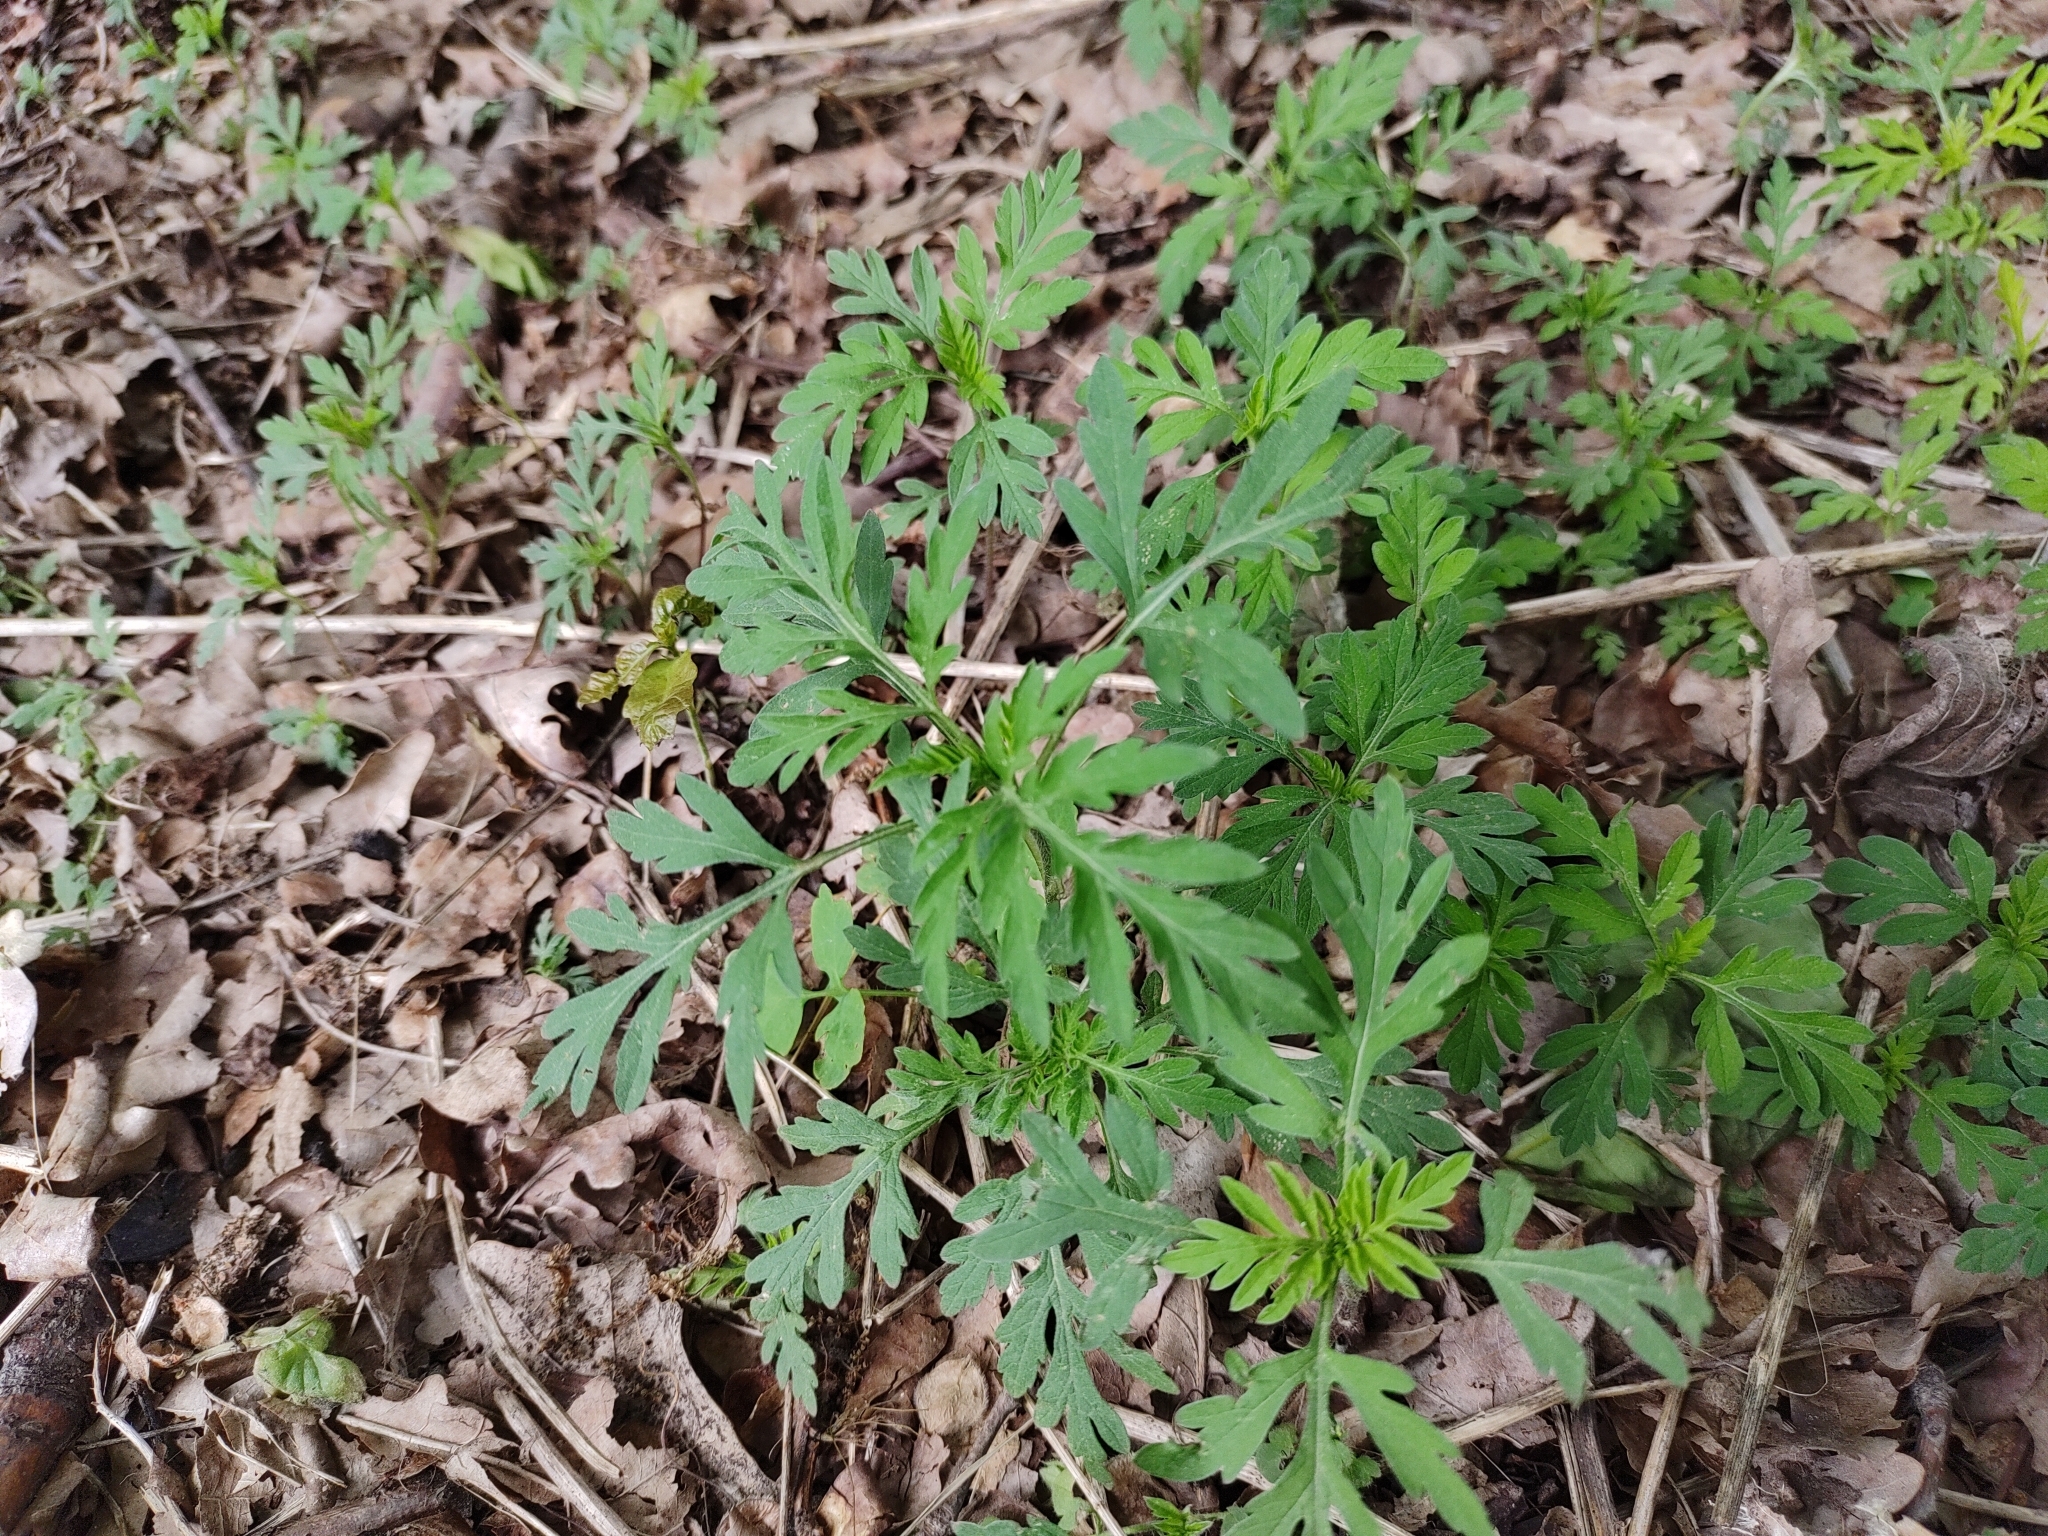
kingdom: Plantae
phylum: Tracheophyta
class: Magnoliopsida
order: Asterales
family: Asteraceae
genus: Ambrosia
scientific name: Ambrosia artemisiifolia
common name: Annual ragweed
